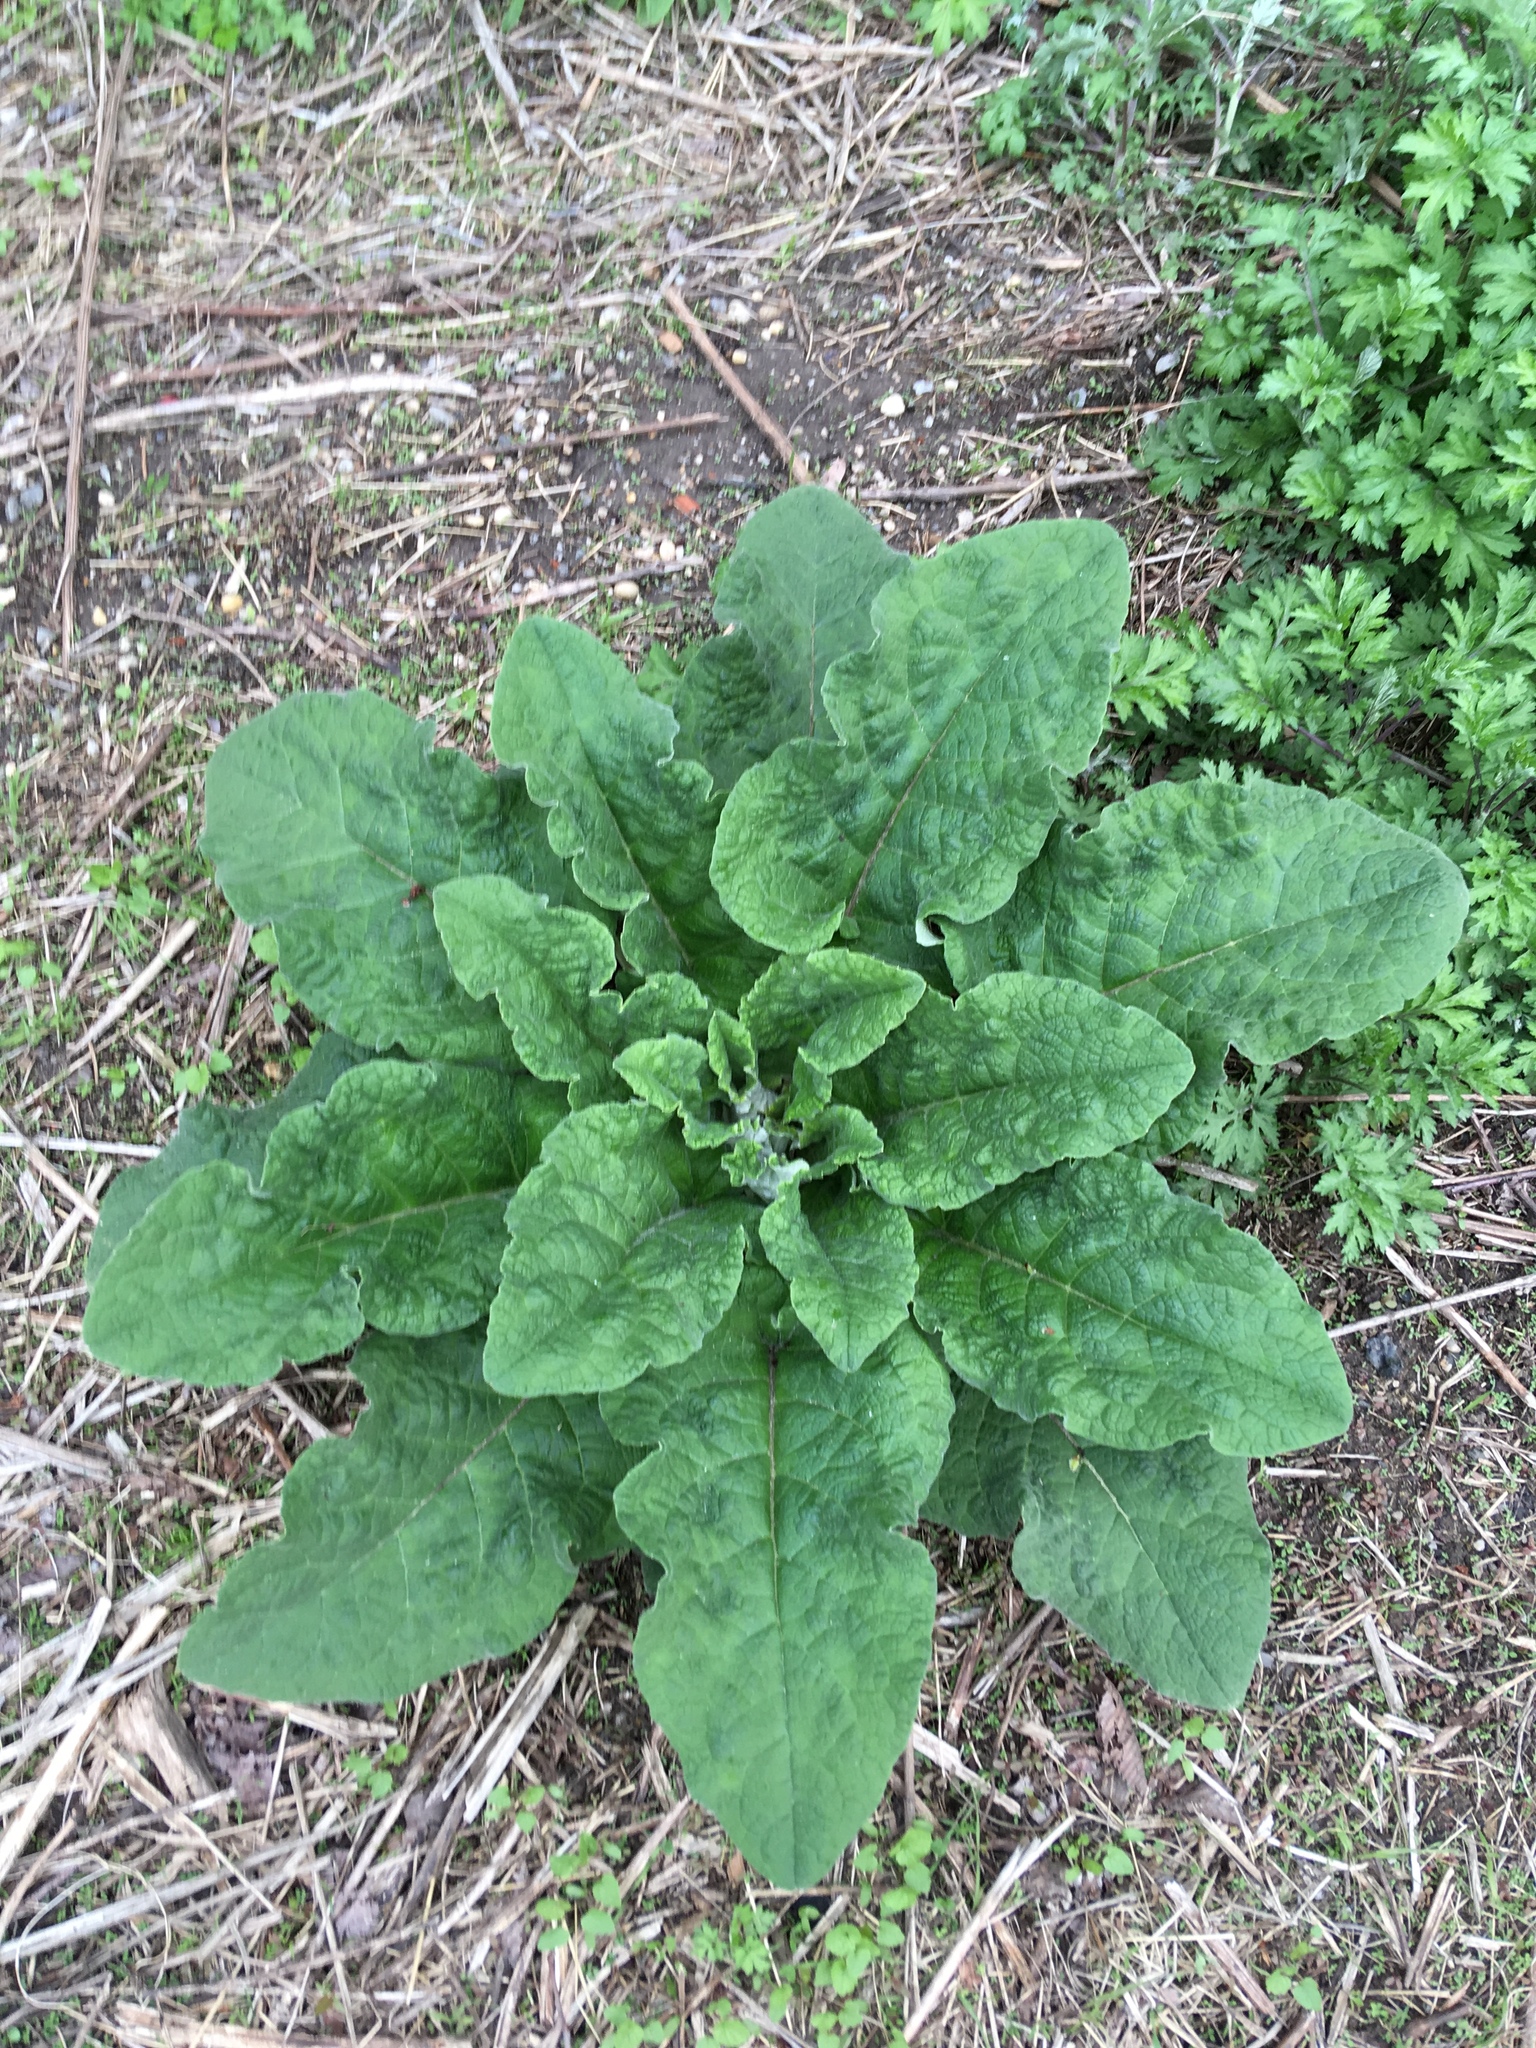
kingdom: Plantae
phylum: Tracheophyta
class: Magnoliopsida
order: Asterales
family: Asteraceae
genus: Arctium
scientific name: Arctium
